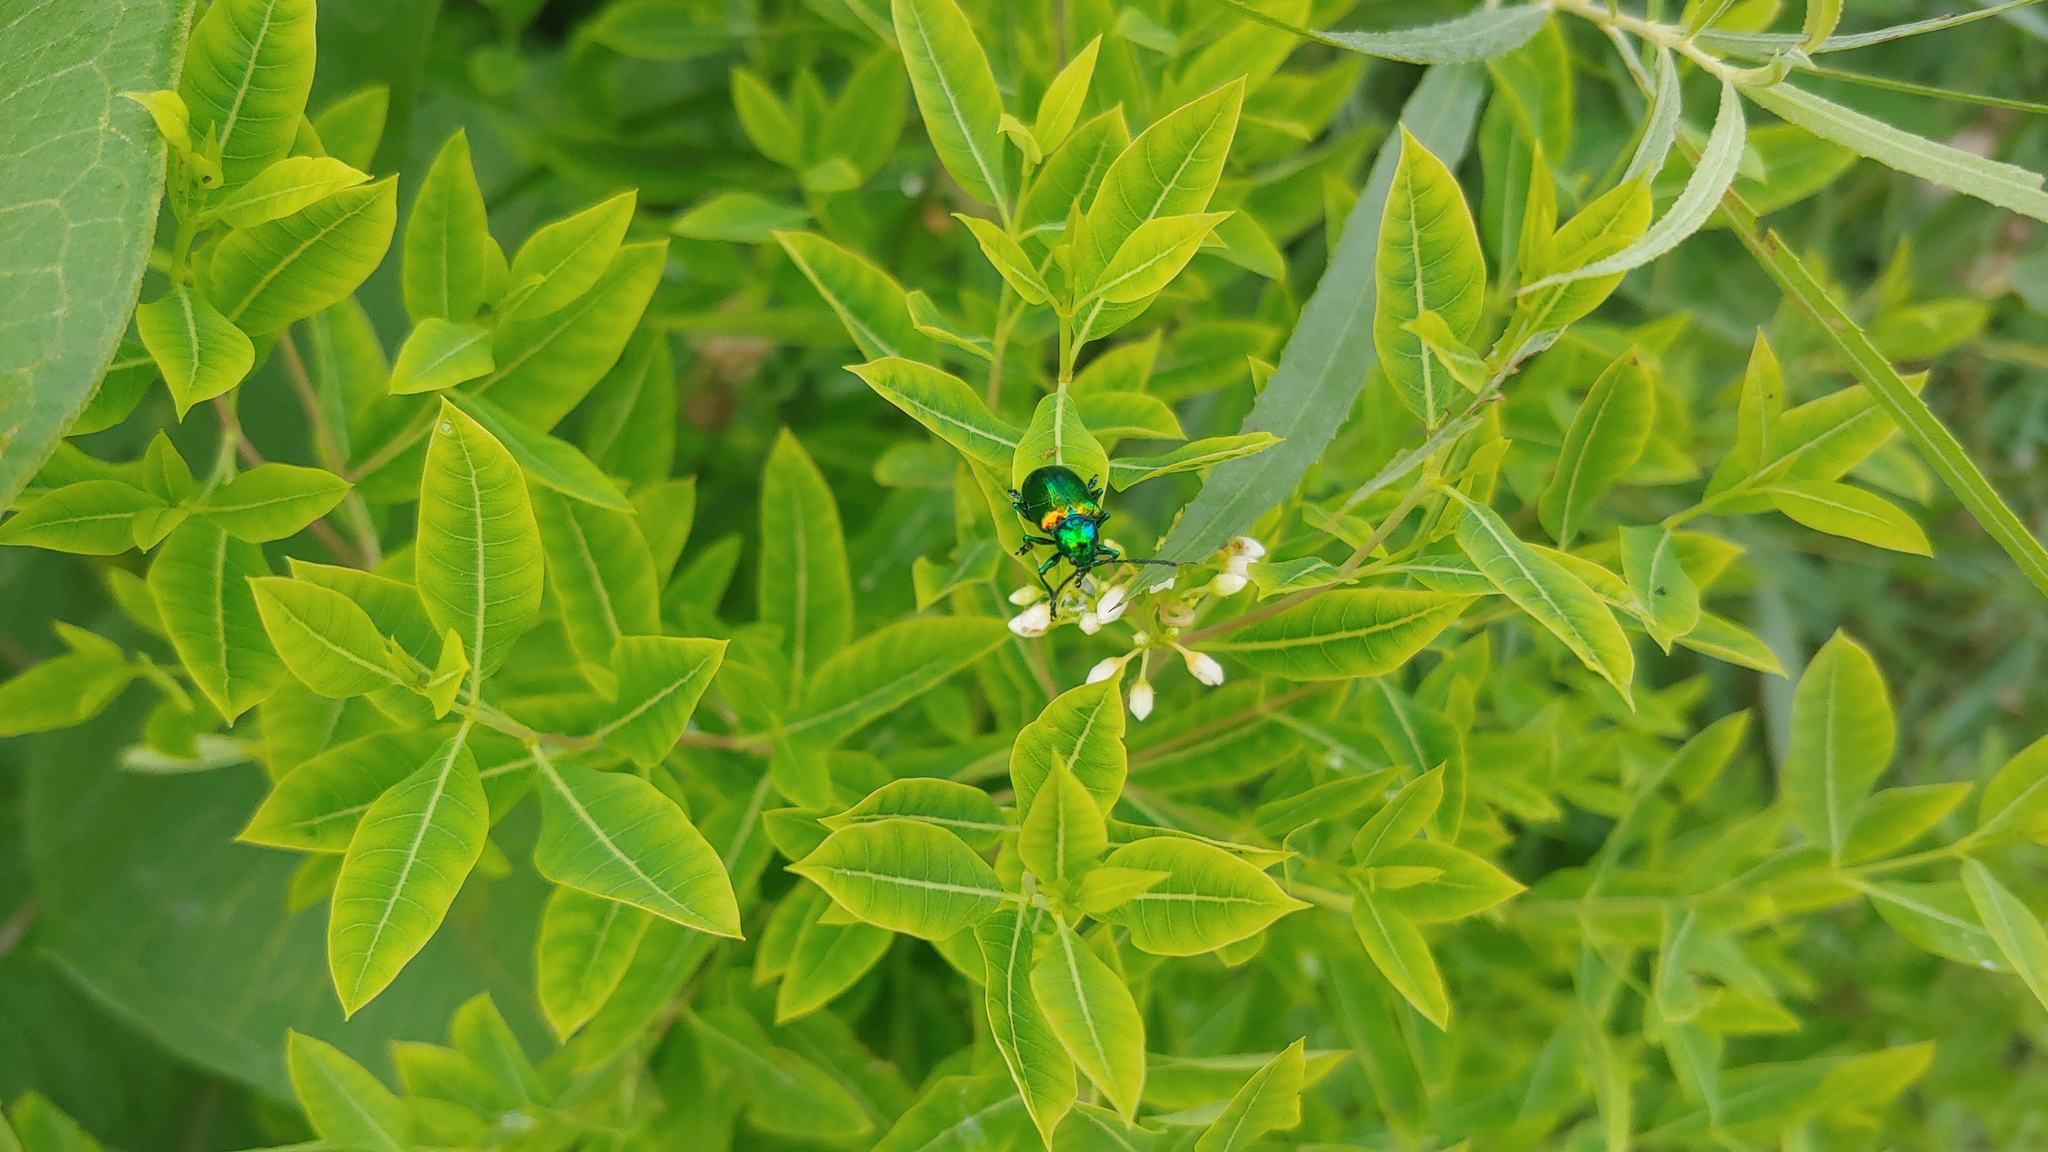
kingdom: Animalia
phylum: Arthropoda
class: Insecta
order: Coleoptera
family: Chrysomelidae
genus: Chrysochus
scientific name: Chrysochus auratus
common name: Dogbane leaf beetle
